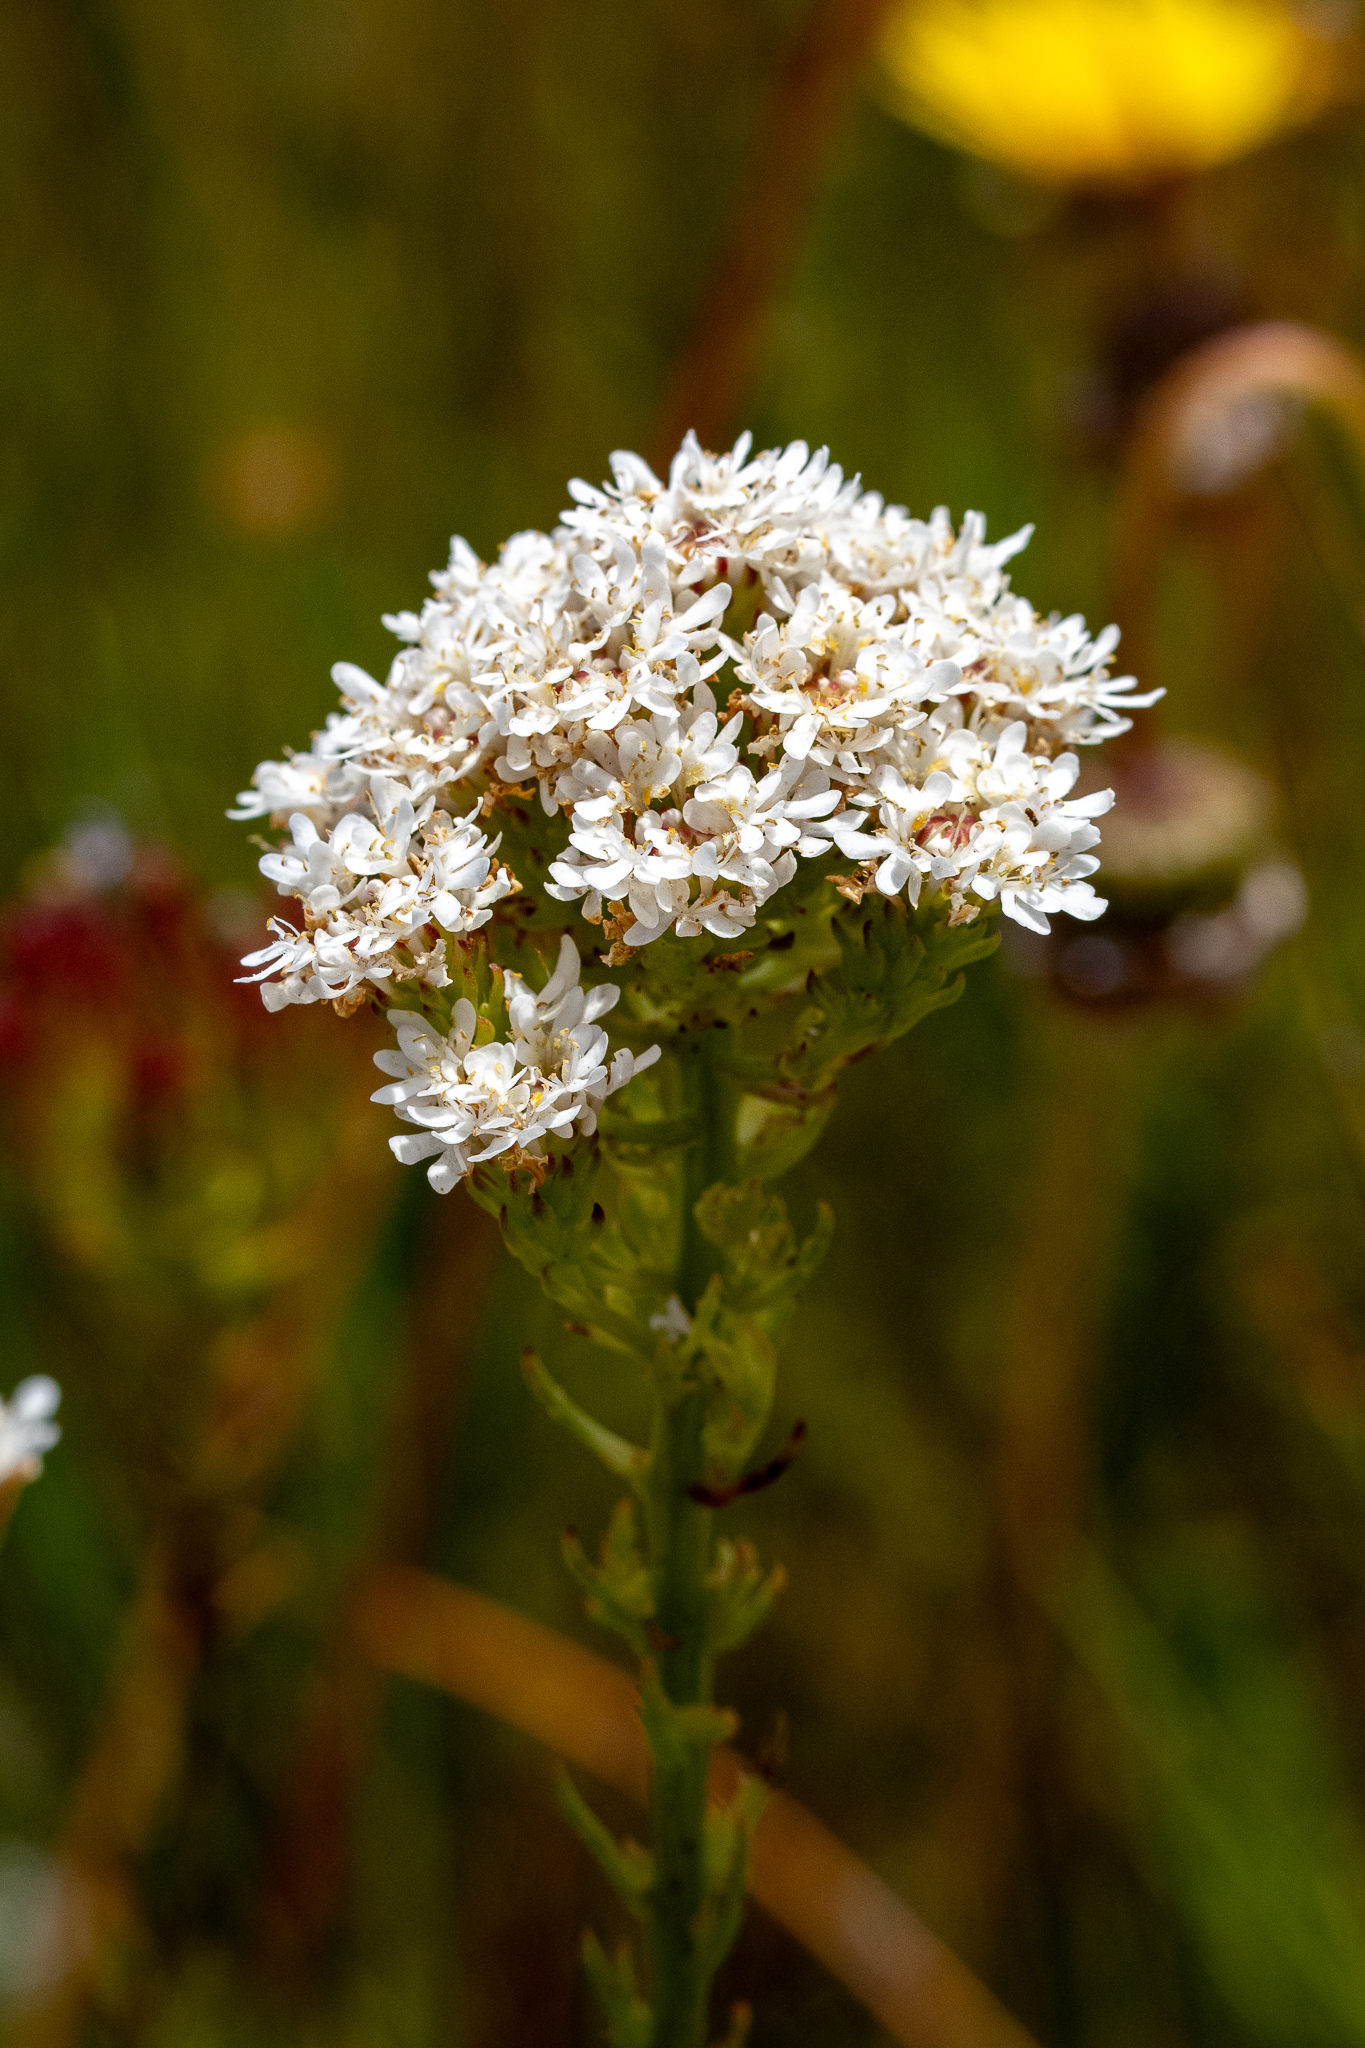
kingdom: Plantae
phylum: Tracheophyta
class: Magnoliopsida
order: Lamiales
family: Scrophulariaceae
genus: Pseudoselago
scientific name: Pseudoselago spuria
